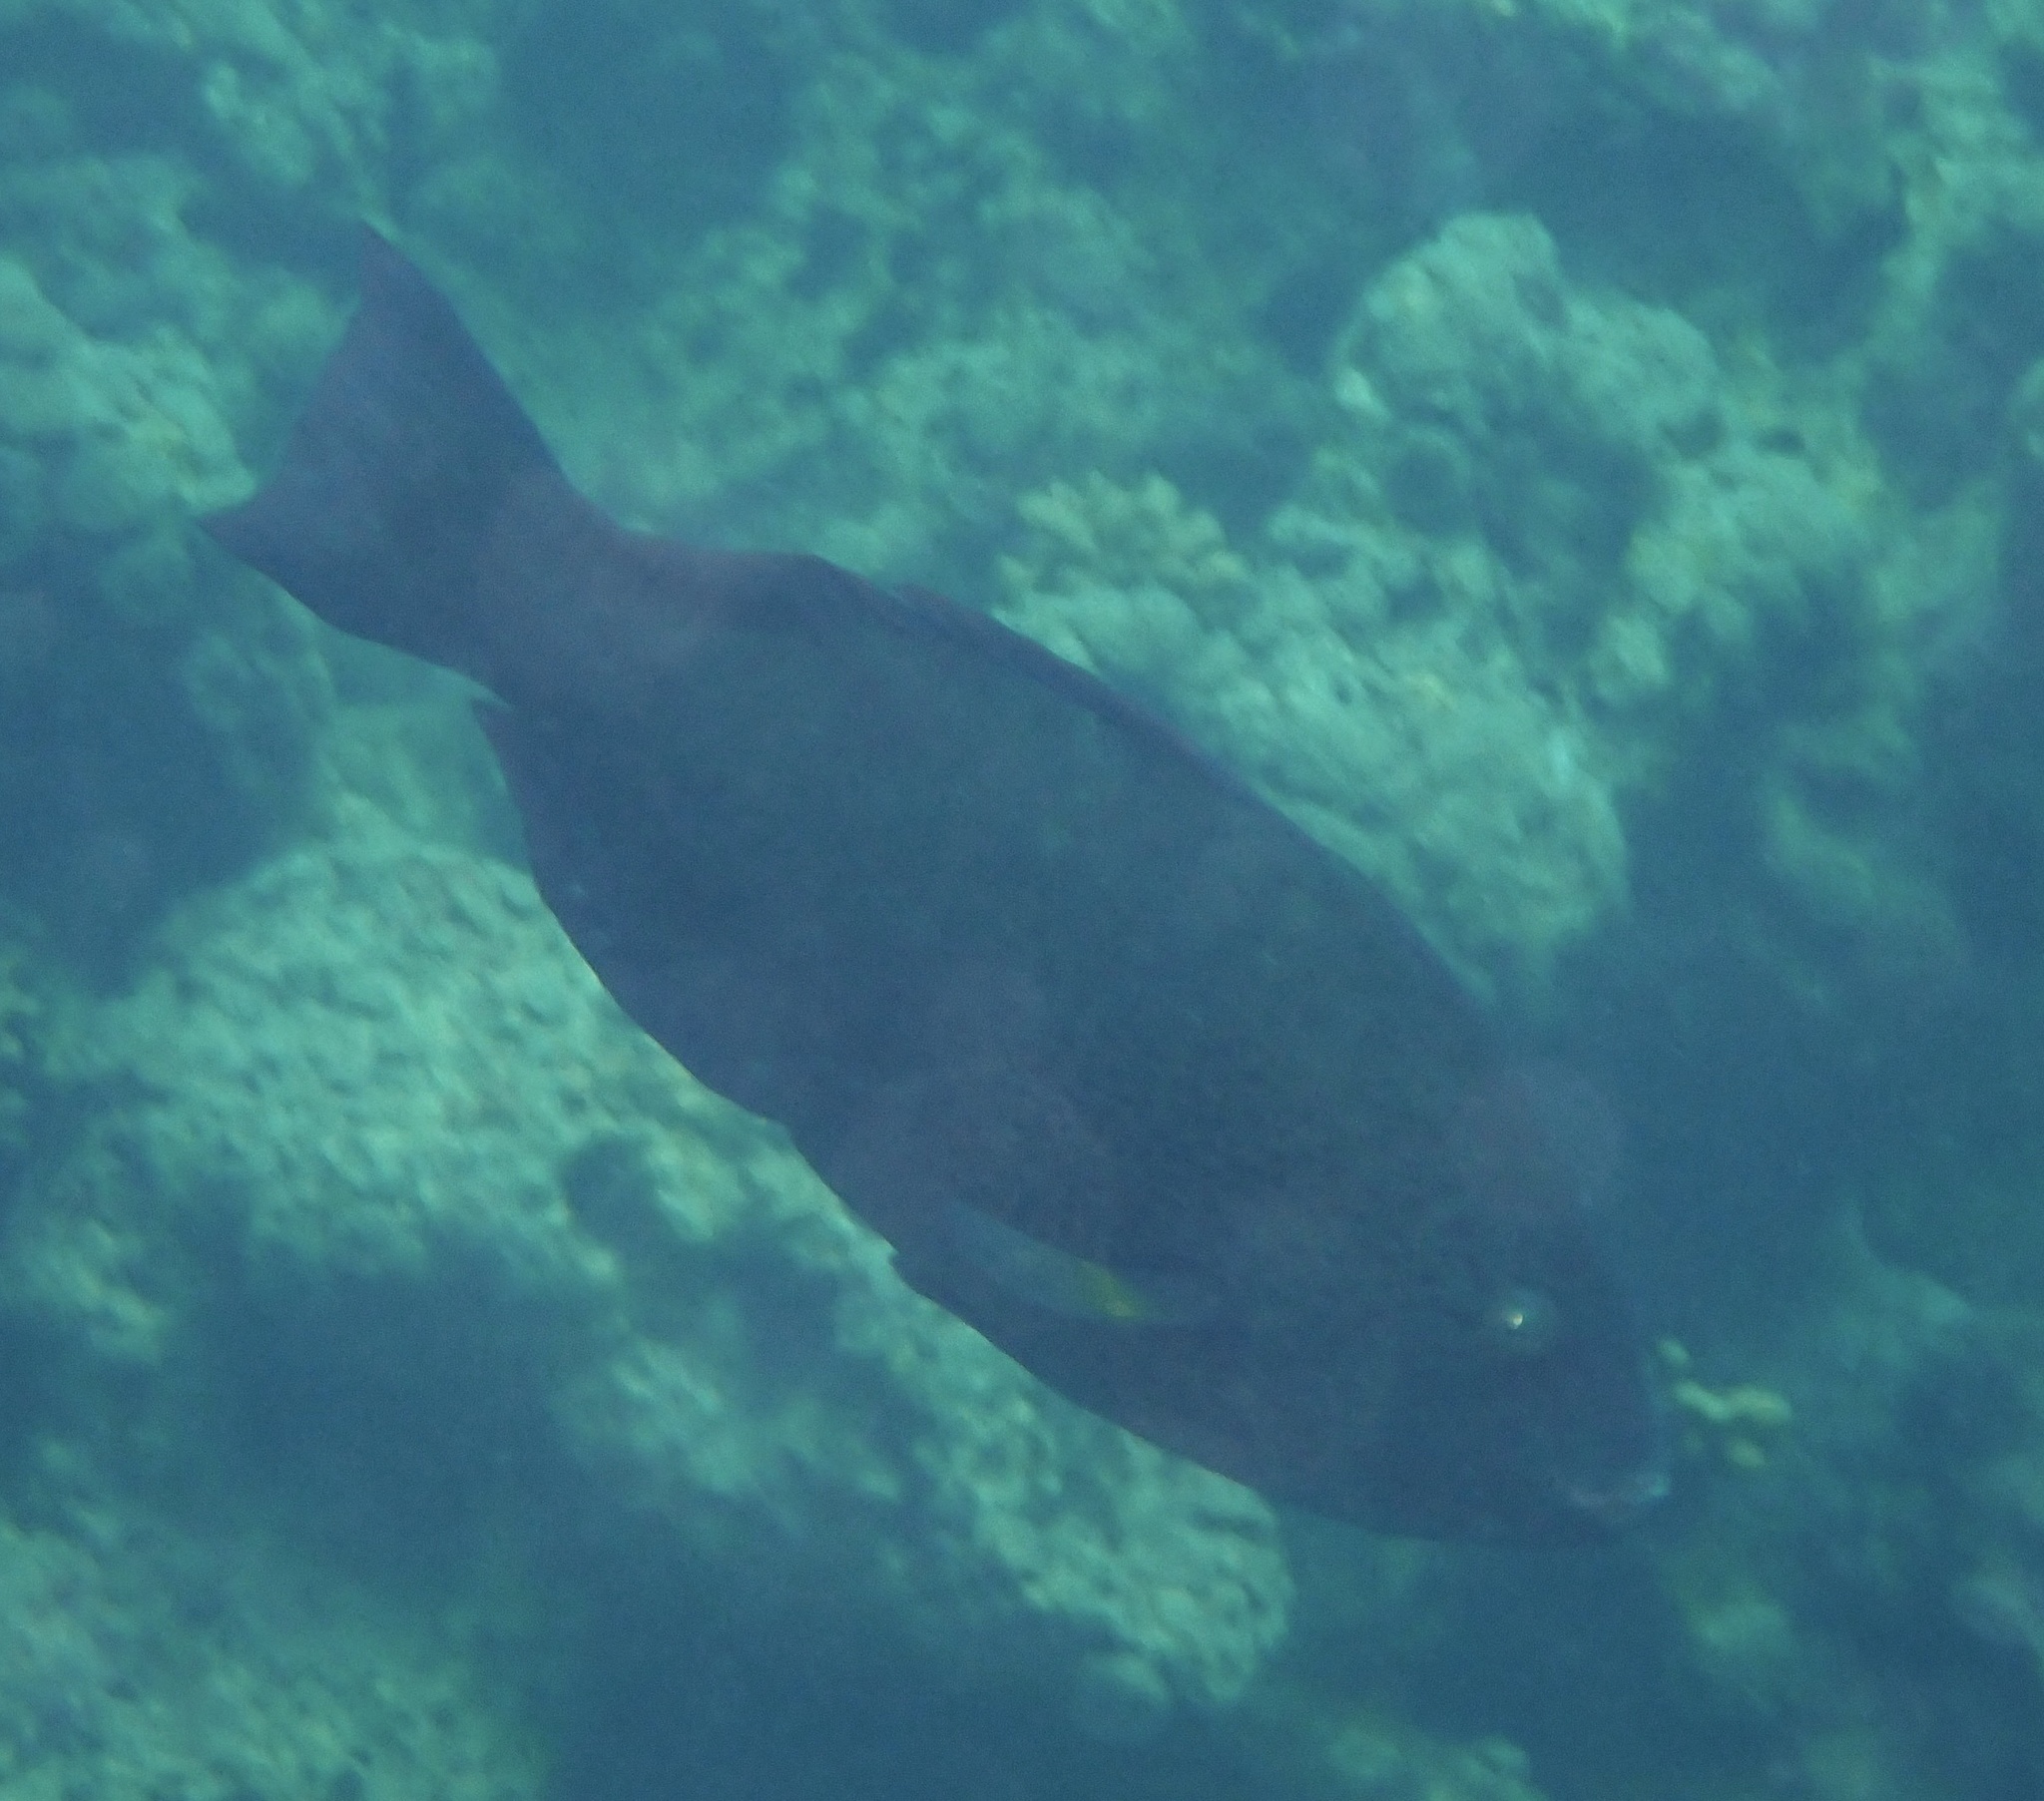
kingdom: Animalia
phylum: Chordata
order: Perciformes
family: Scaridae
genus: Calotomus
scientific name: Calotomus viridescens
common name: Dotted parrotfish
